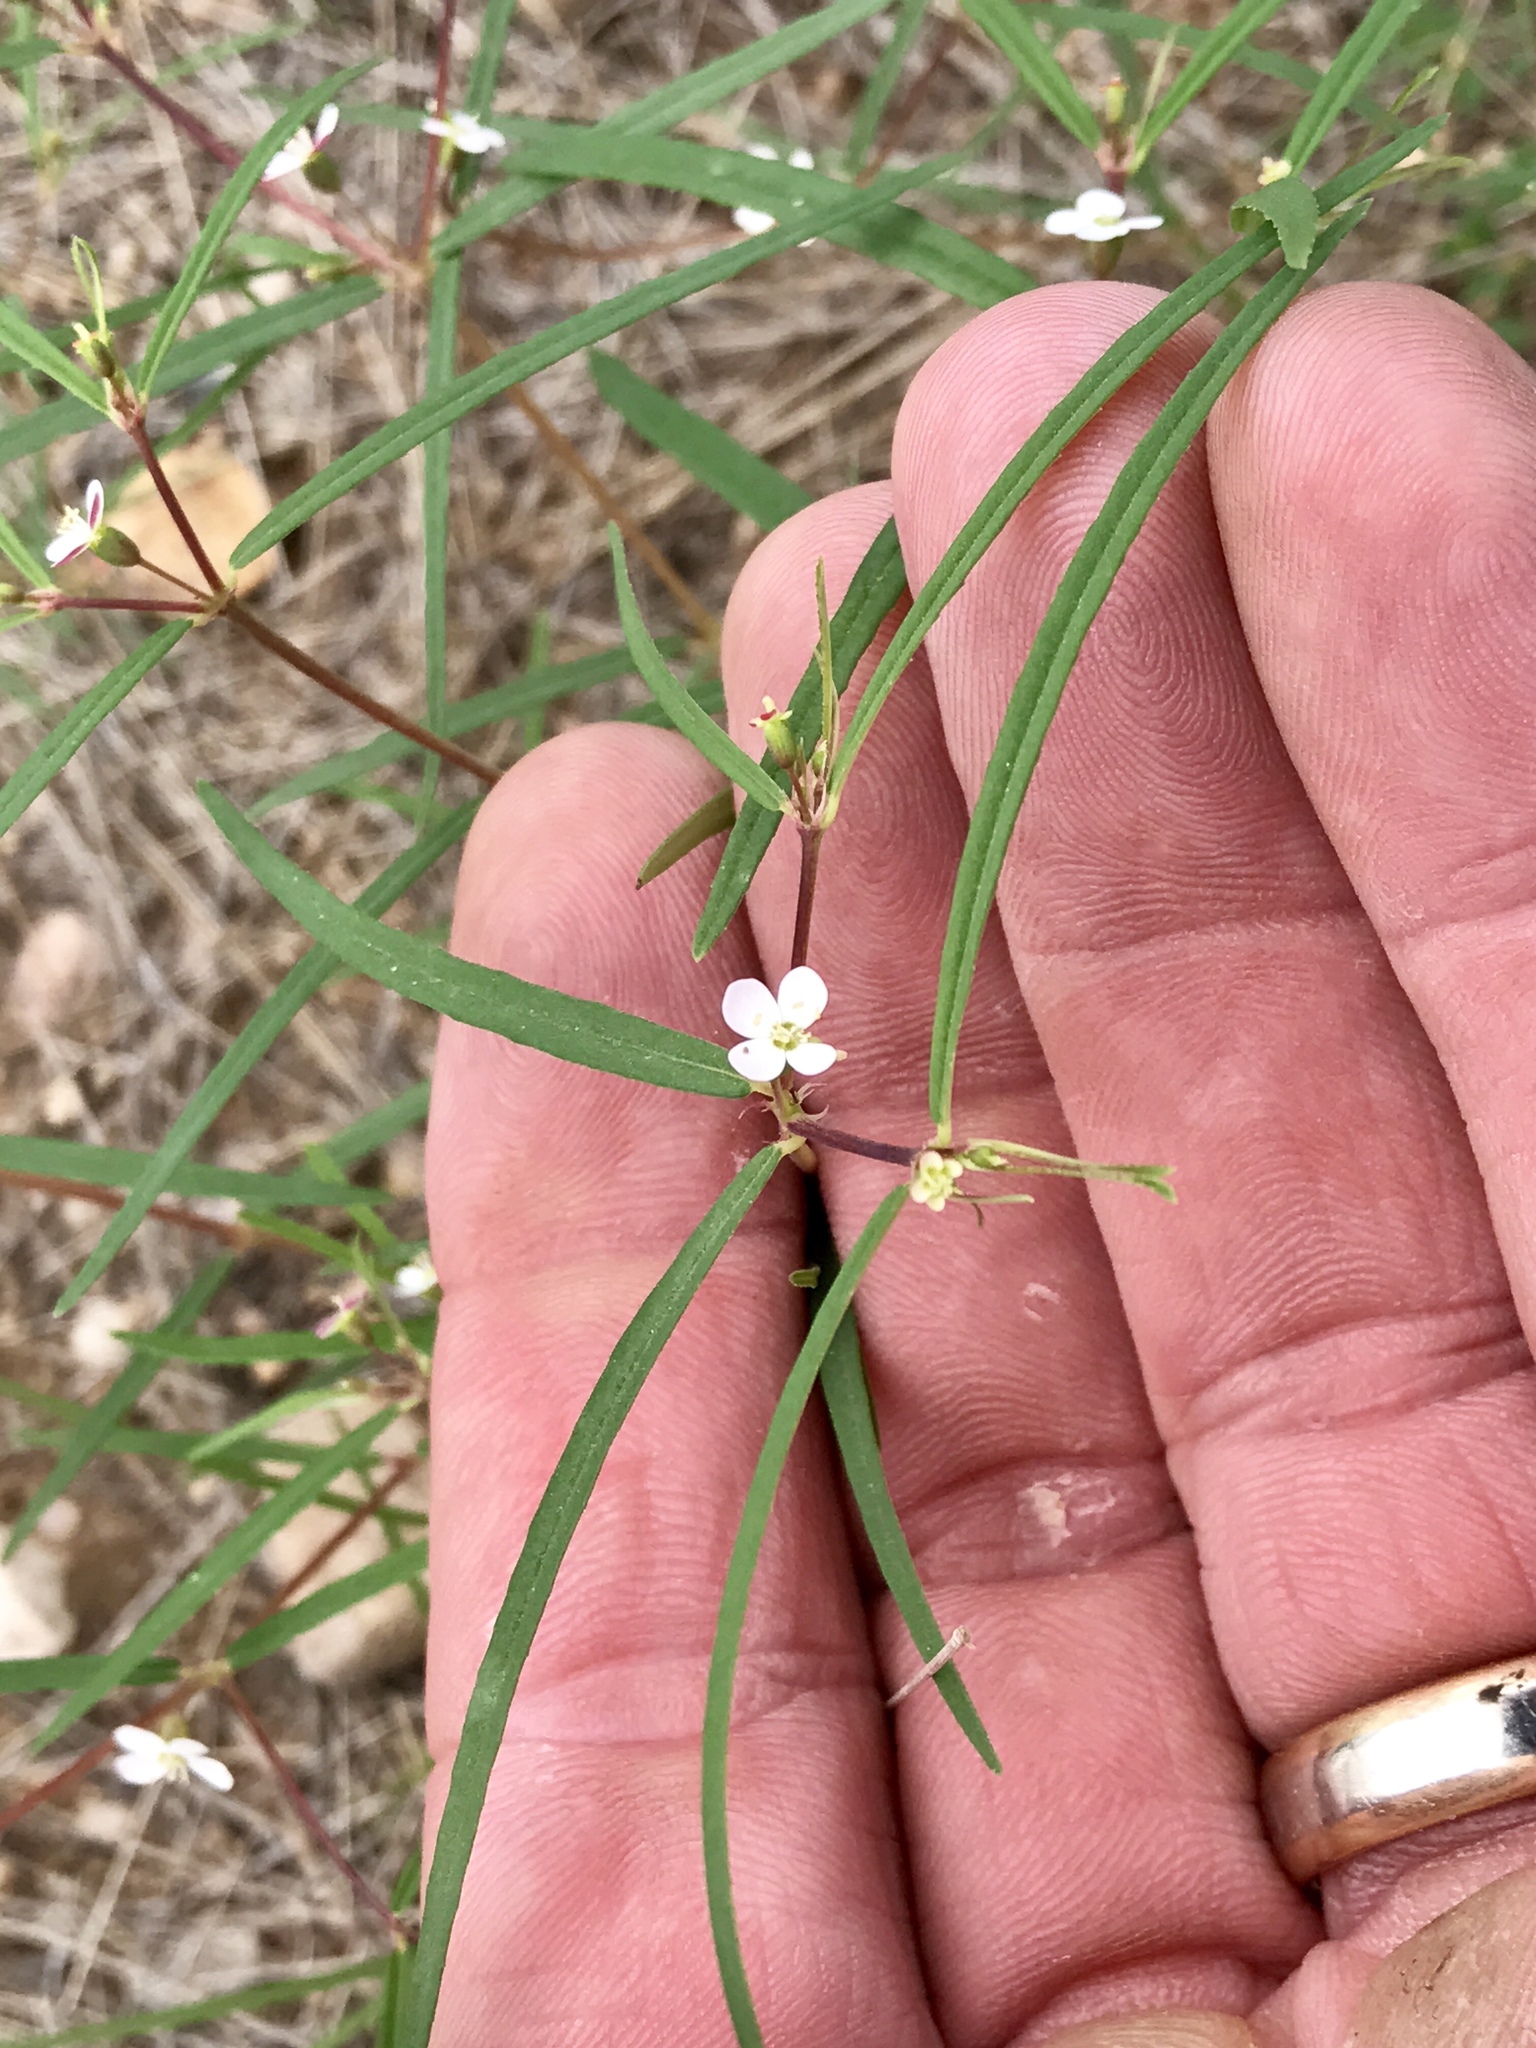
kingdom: Plantae
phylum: Tracheophyta
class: Magnoliopsida
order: Malpighiales
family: Euphorbiaceae
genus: Euphorbia
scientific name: Euphorbia florida
